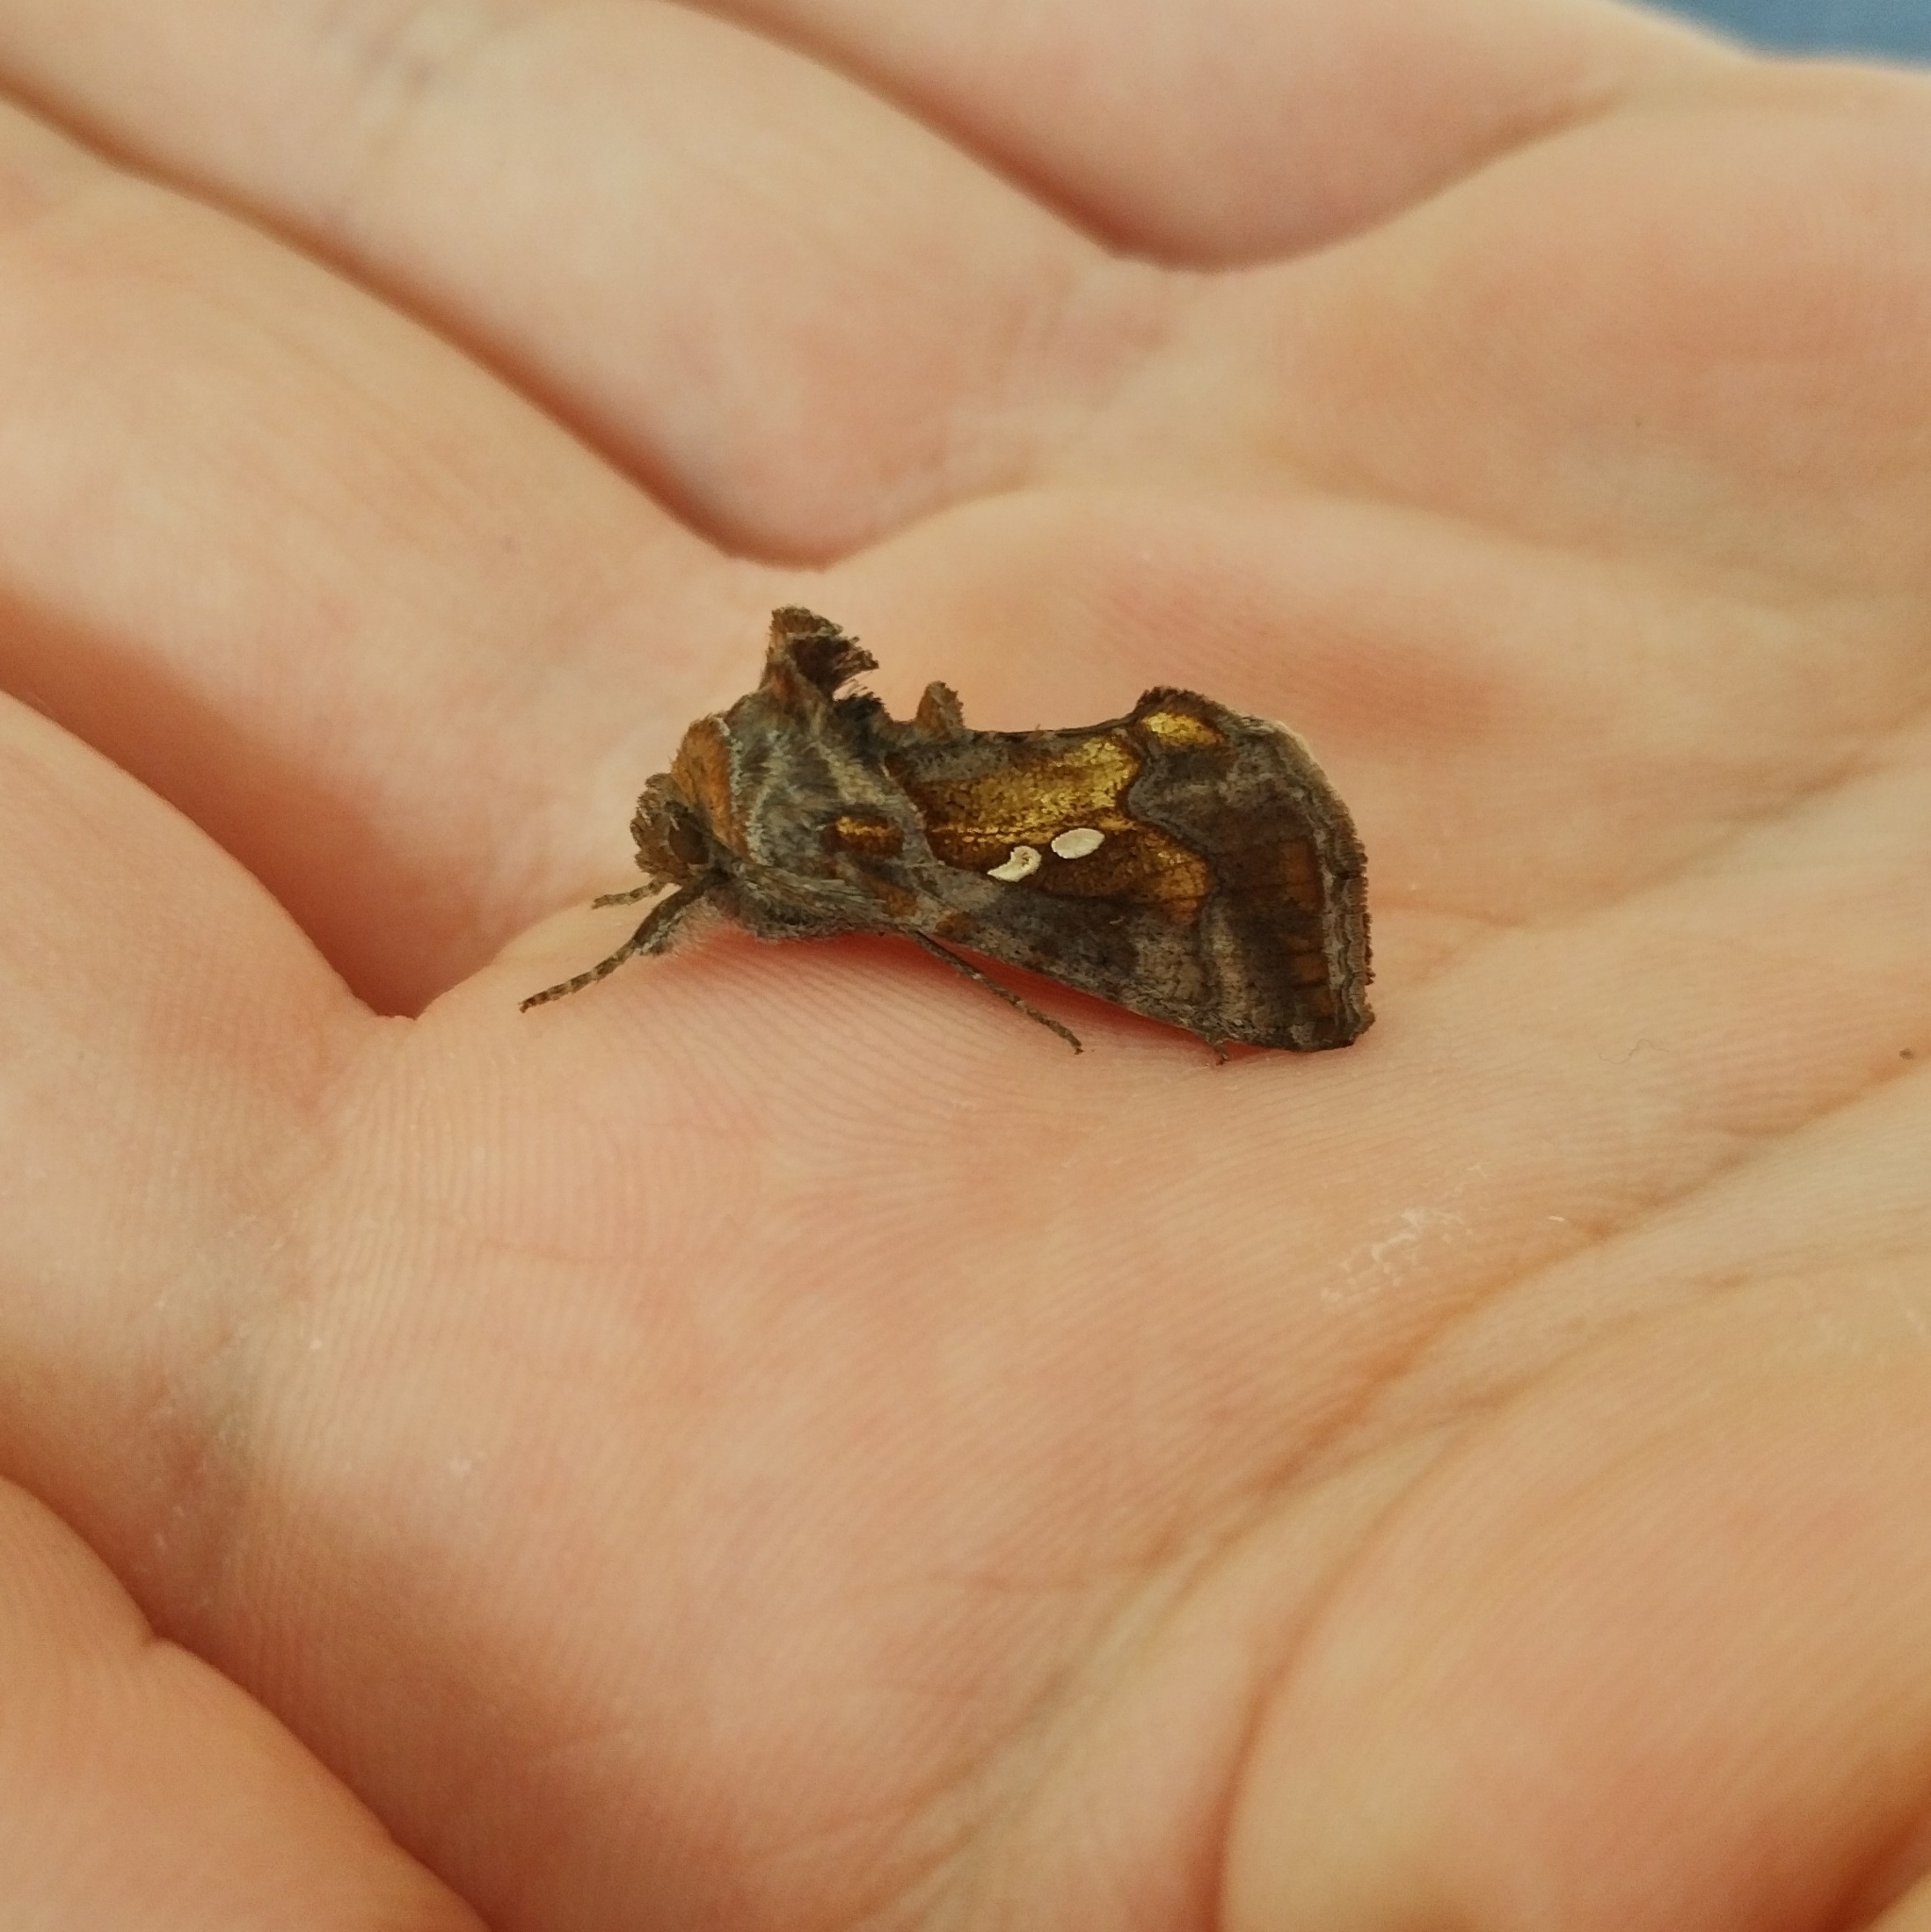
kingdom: Animalia
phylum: Arthropoda
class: Insecta
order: Lepidoptera
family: Noctuidae
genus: Chrysodeixis
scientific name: Chrysodeixis chalcites
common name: Golden twin-spot
